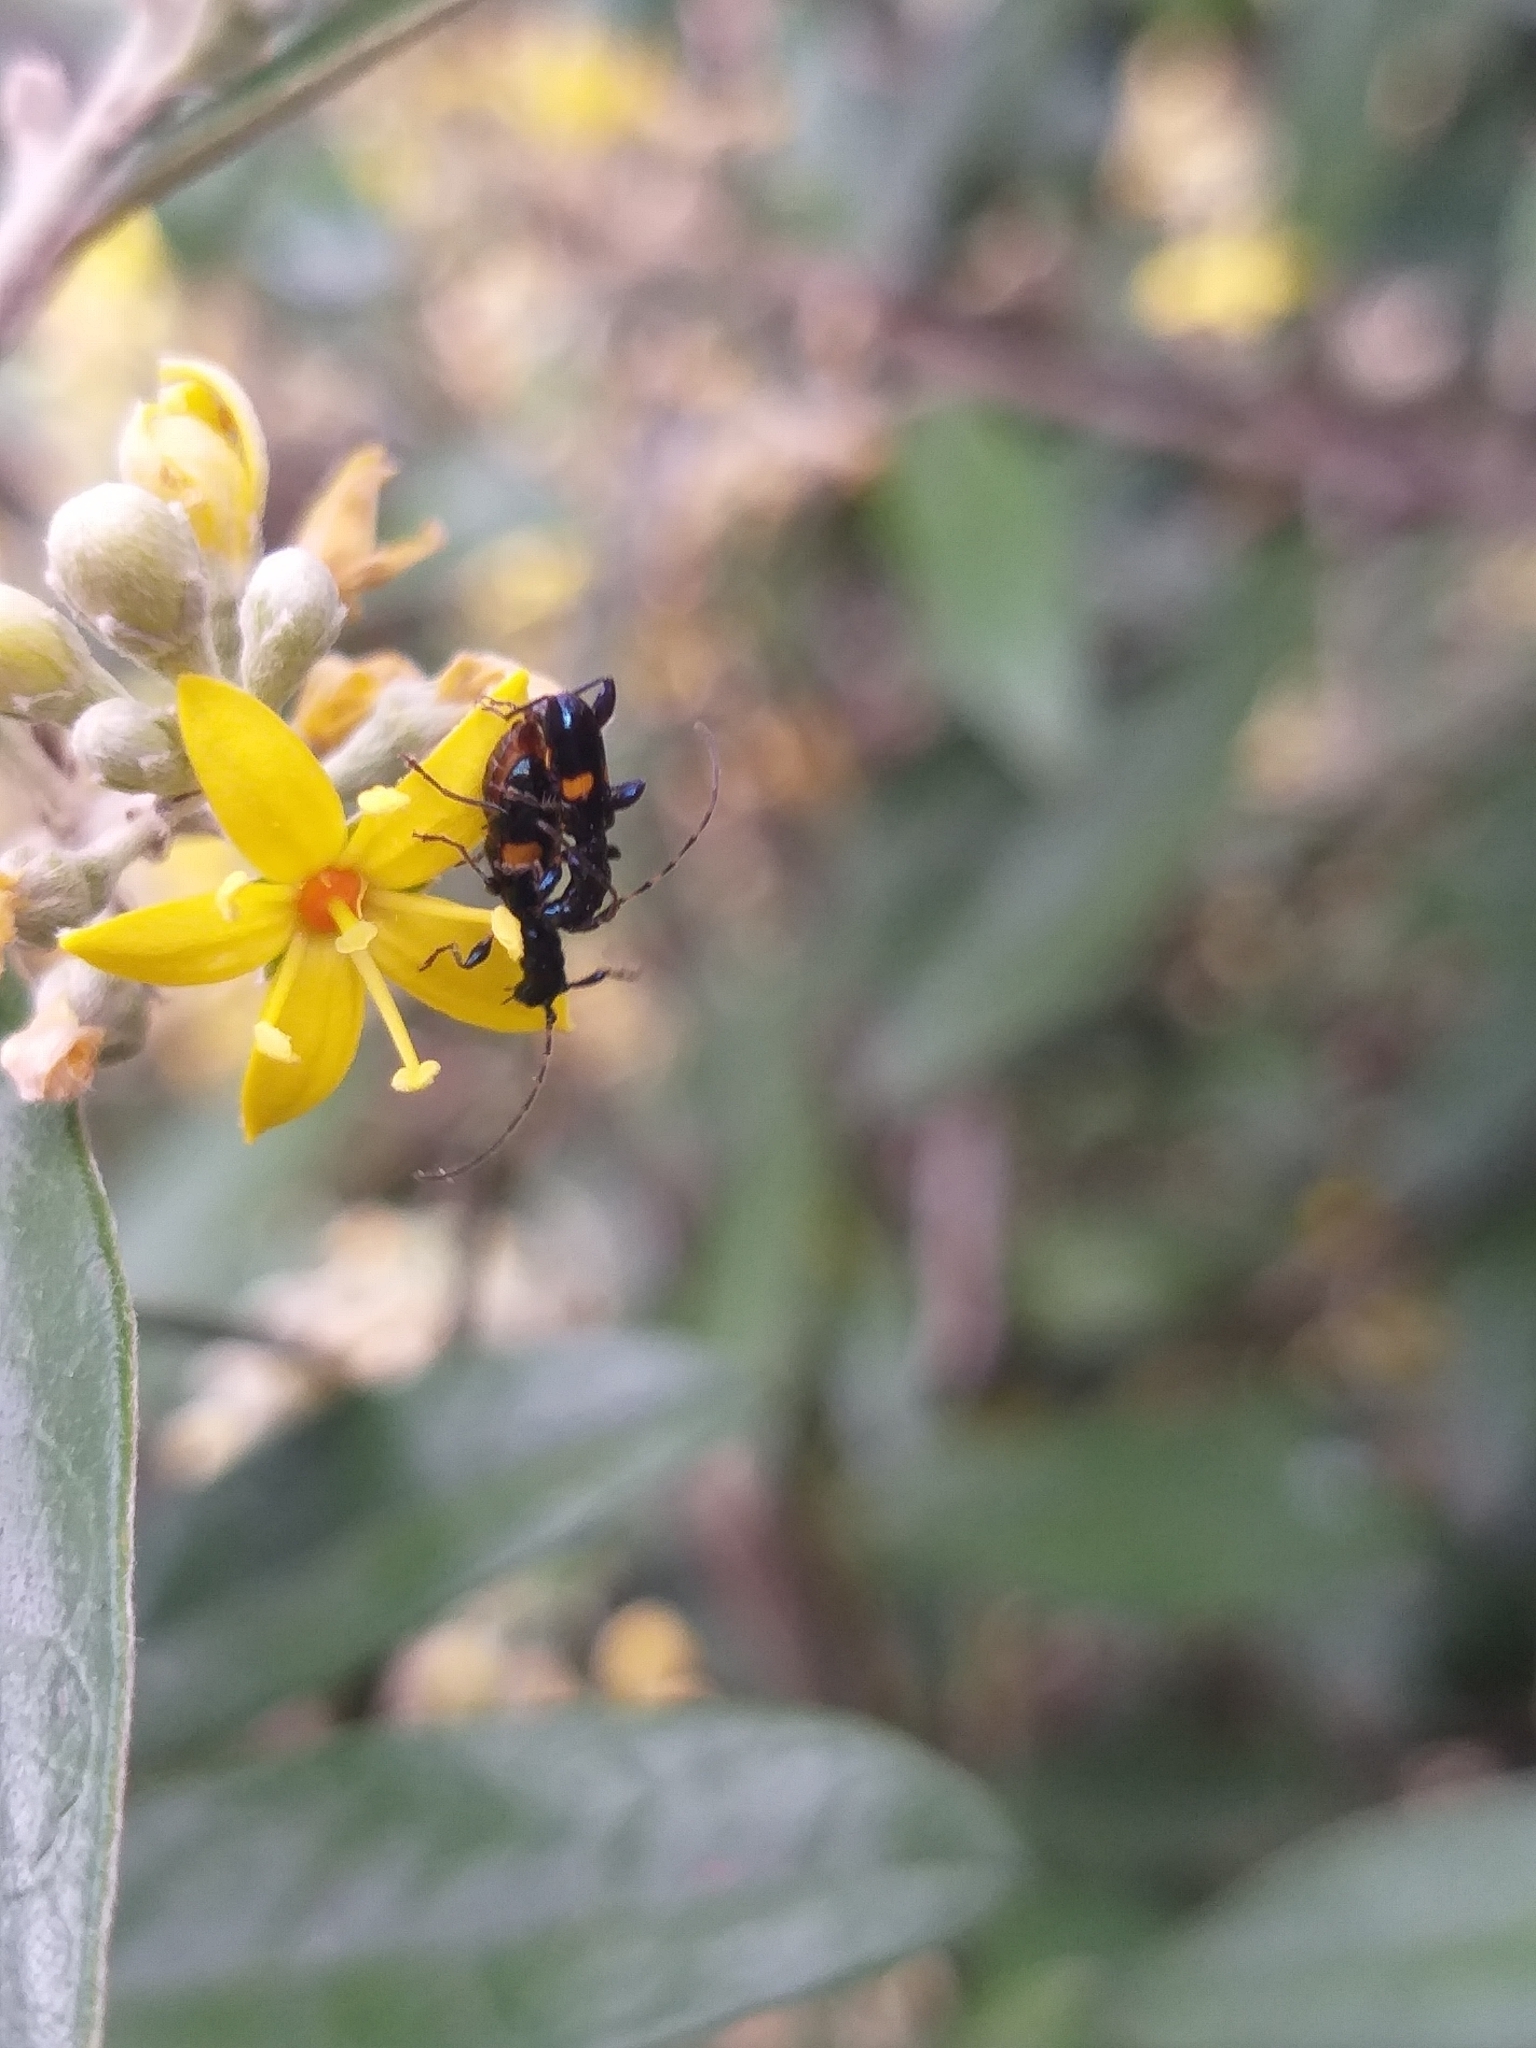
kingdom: Animalia
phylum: Arthropoda
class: Insecta
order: Coleoptera
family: Cerambycidae
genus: Zorion
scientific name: Zorion guttigerum
